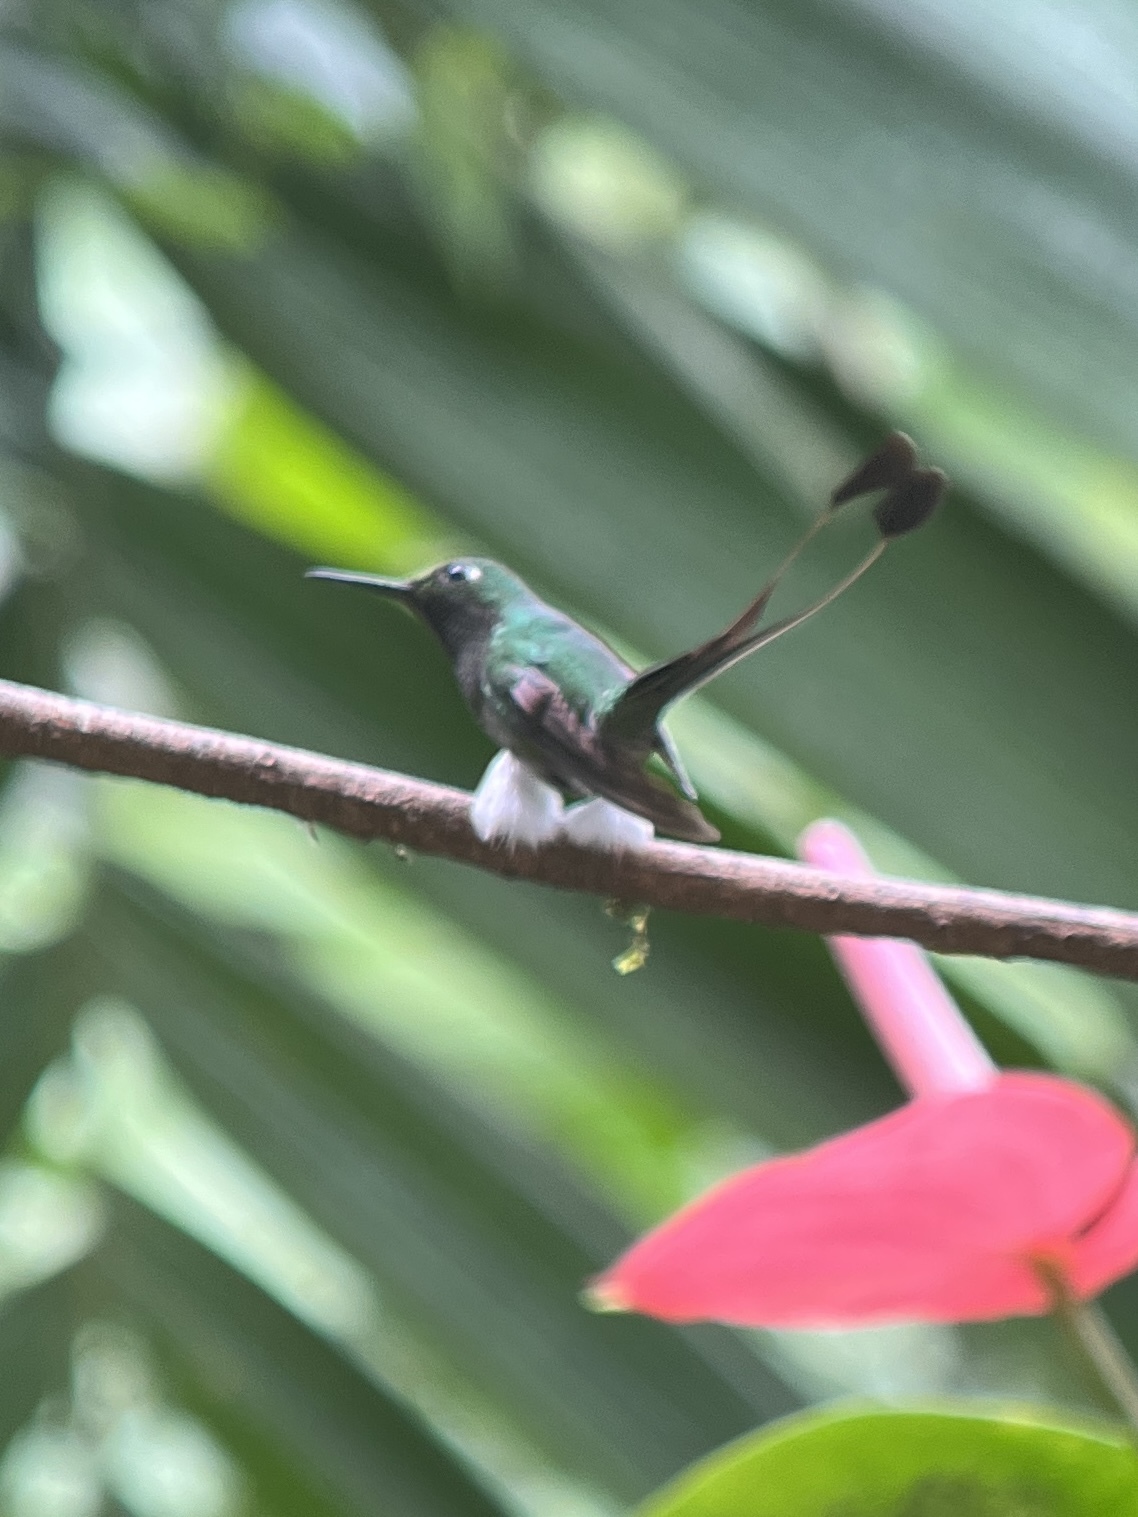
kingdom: Animalia
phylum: Chordata
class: Aves
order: Apodiformes
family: Trochilidae
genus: Ocreatus
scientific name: Ocreatus underwoodii
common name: Booted racket-tail
